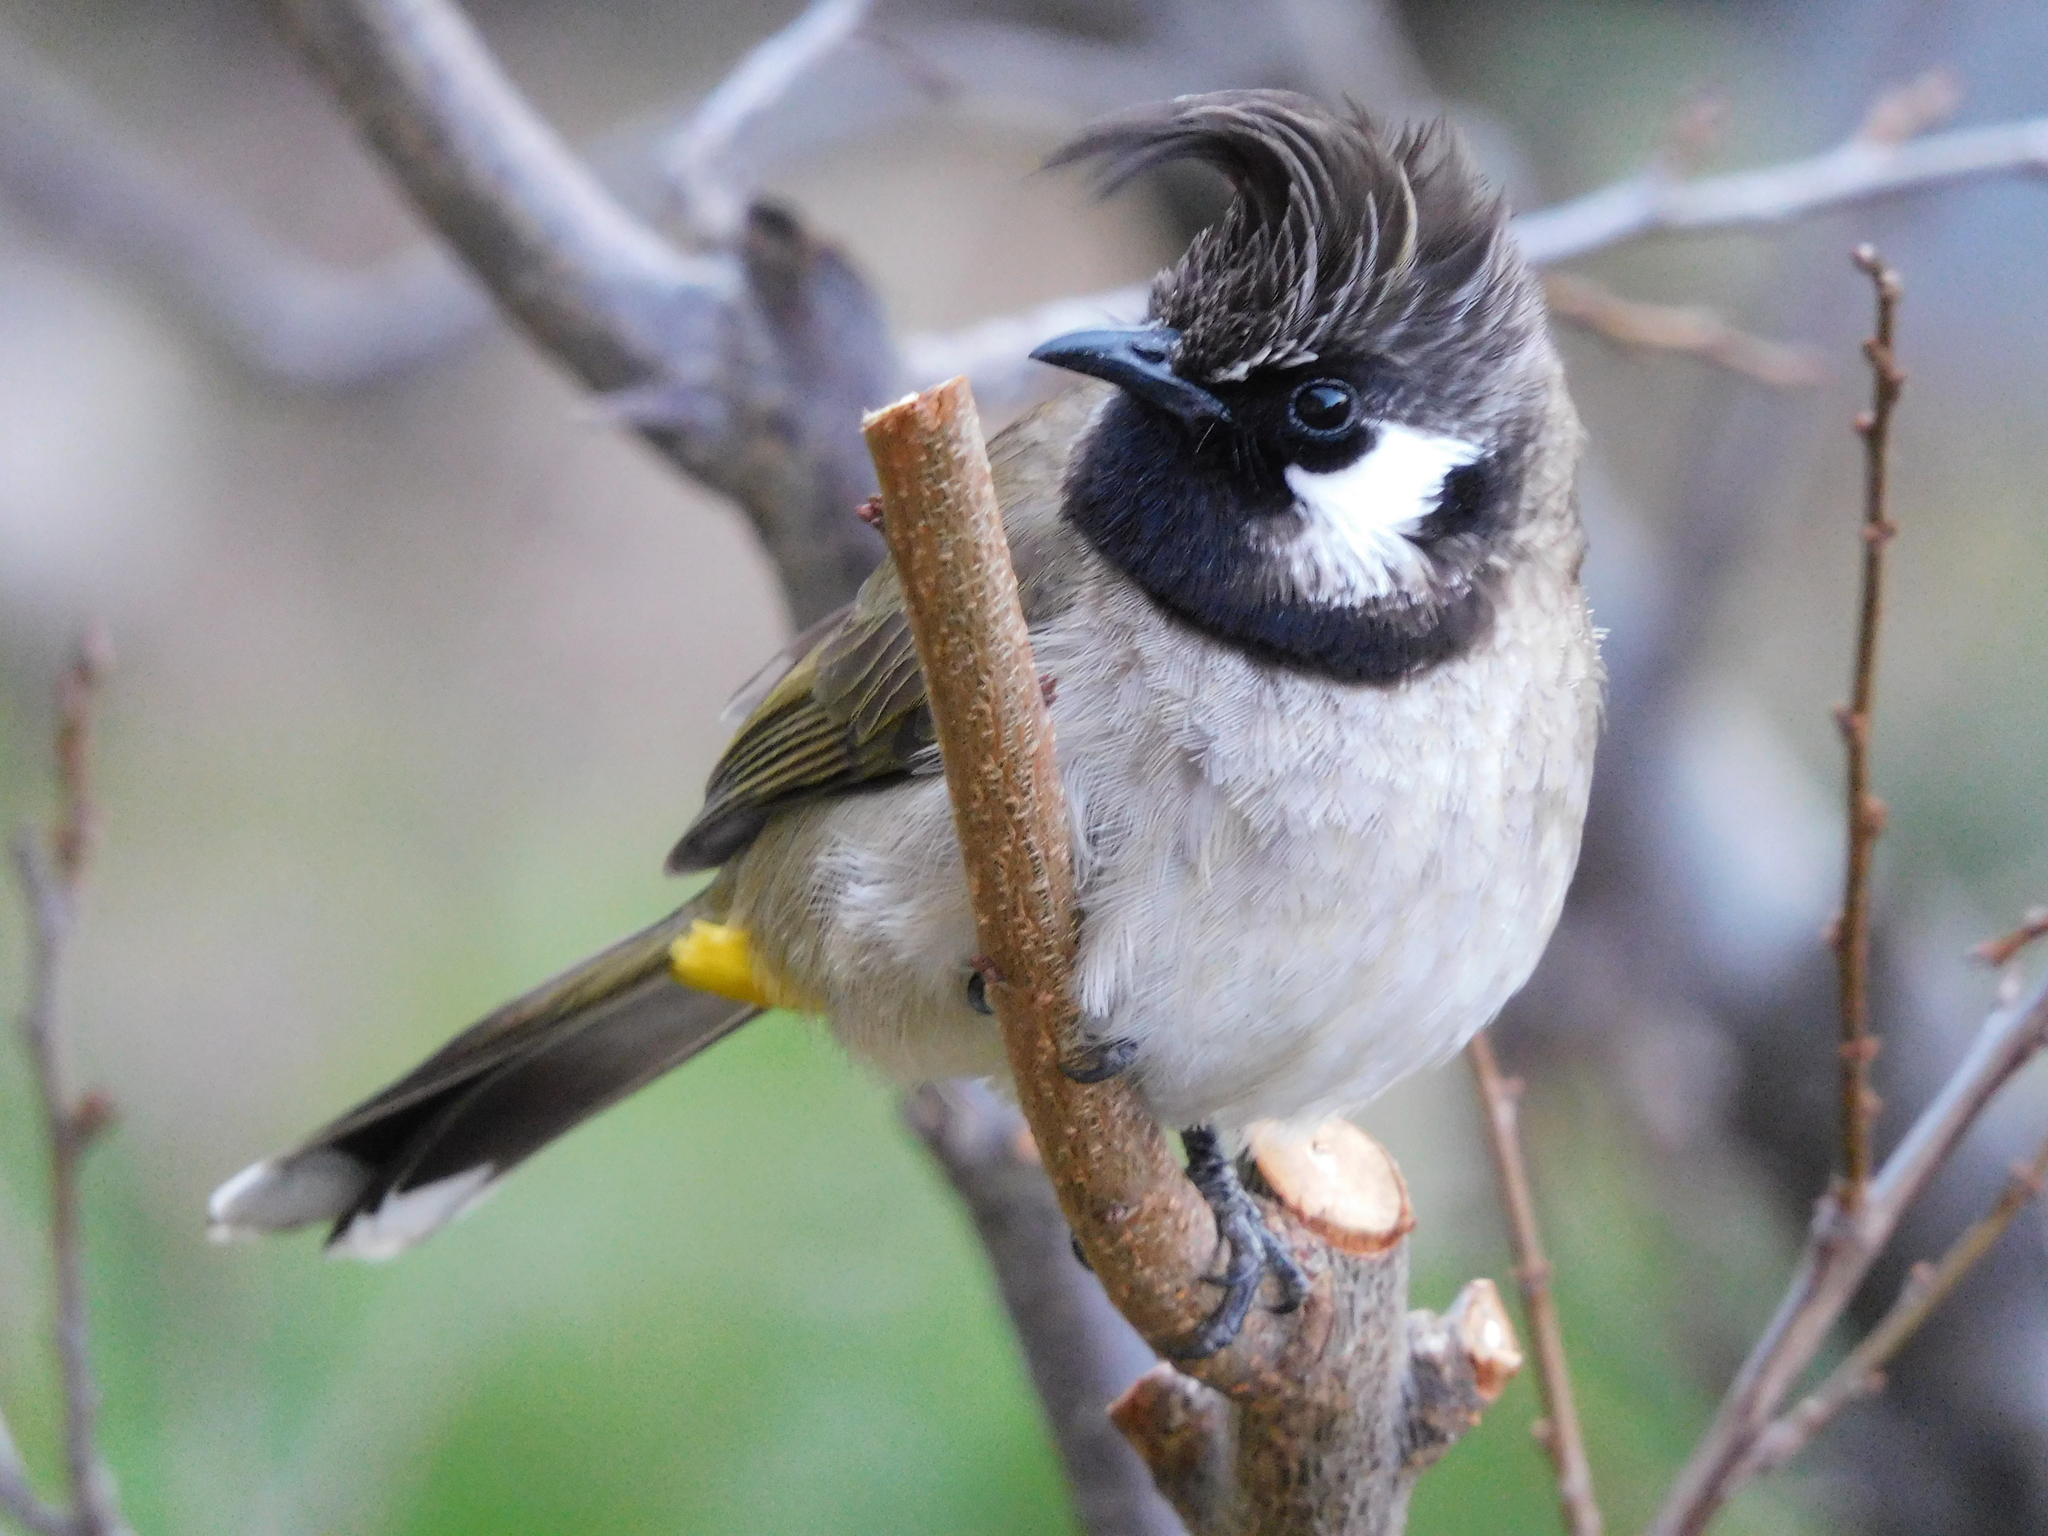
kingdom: Animalia
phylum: Chordata
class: Aves
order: Passeriformes
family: Pycnonotidae
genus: Pycnonotus
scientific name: Pycnonotus leucogenys
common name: Himalayan bulbul
